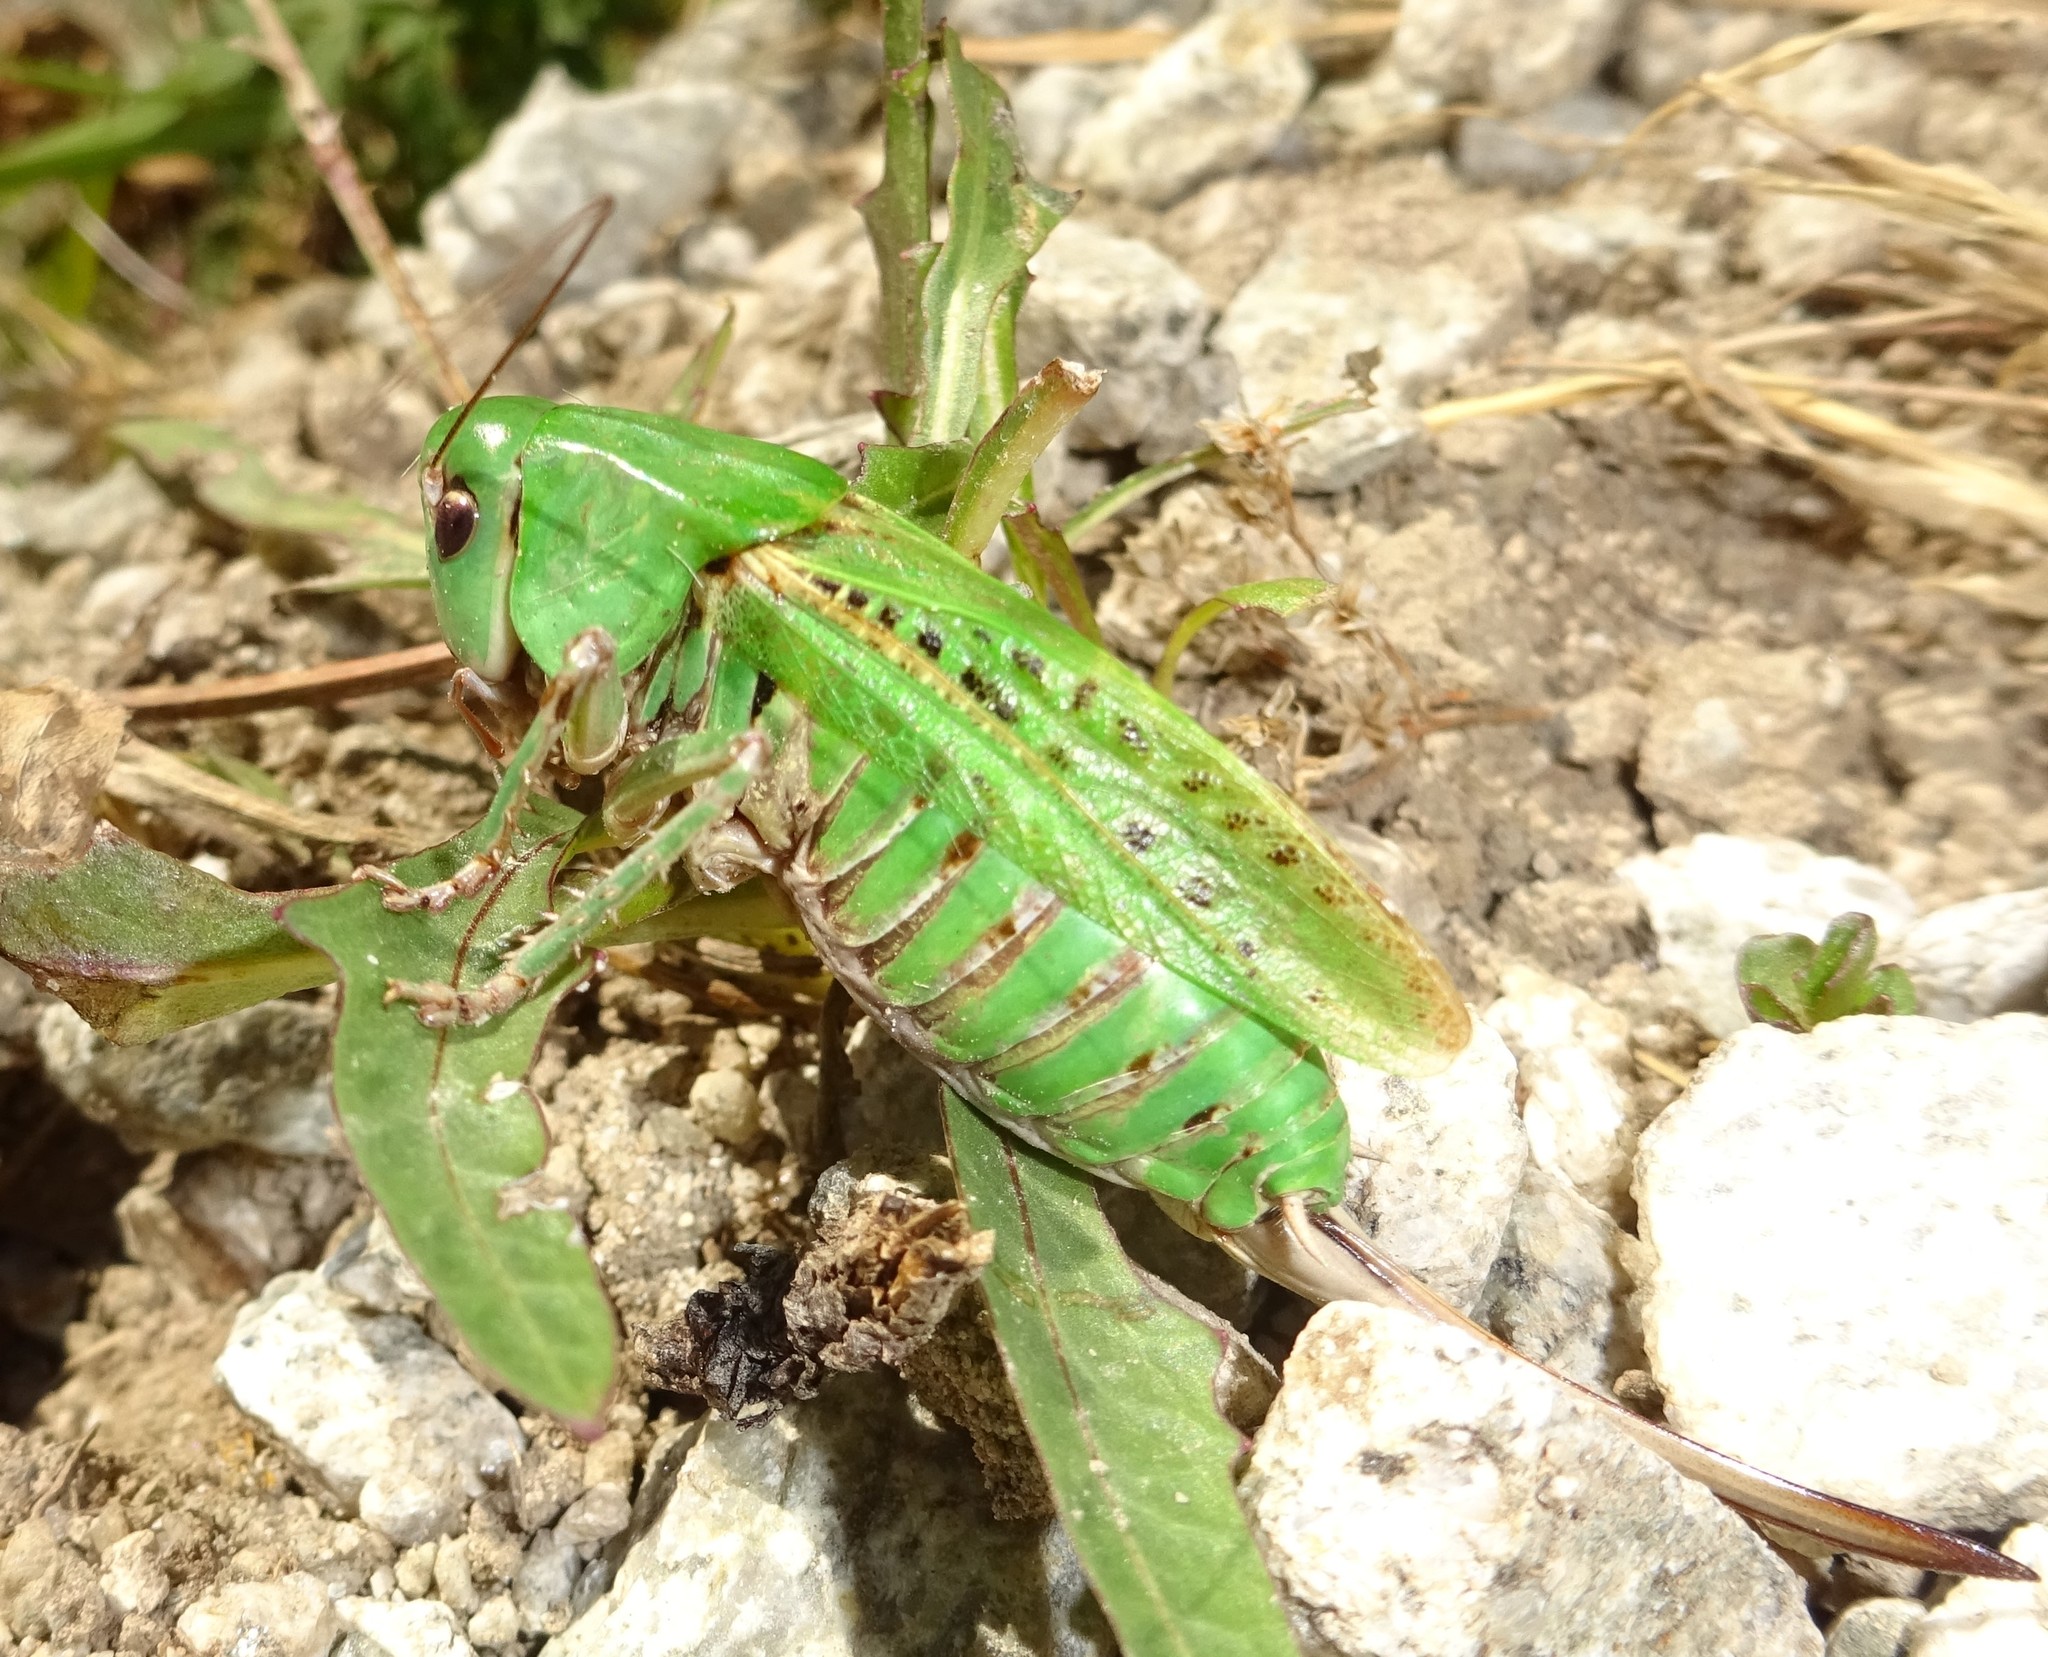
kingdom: Animalia
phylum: Arthropoda
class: Insecta
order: Orthoptera
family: Tettigoniidae
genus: Decticus
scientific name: Decticus verrucivorus
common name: Wart-biter
